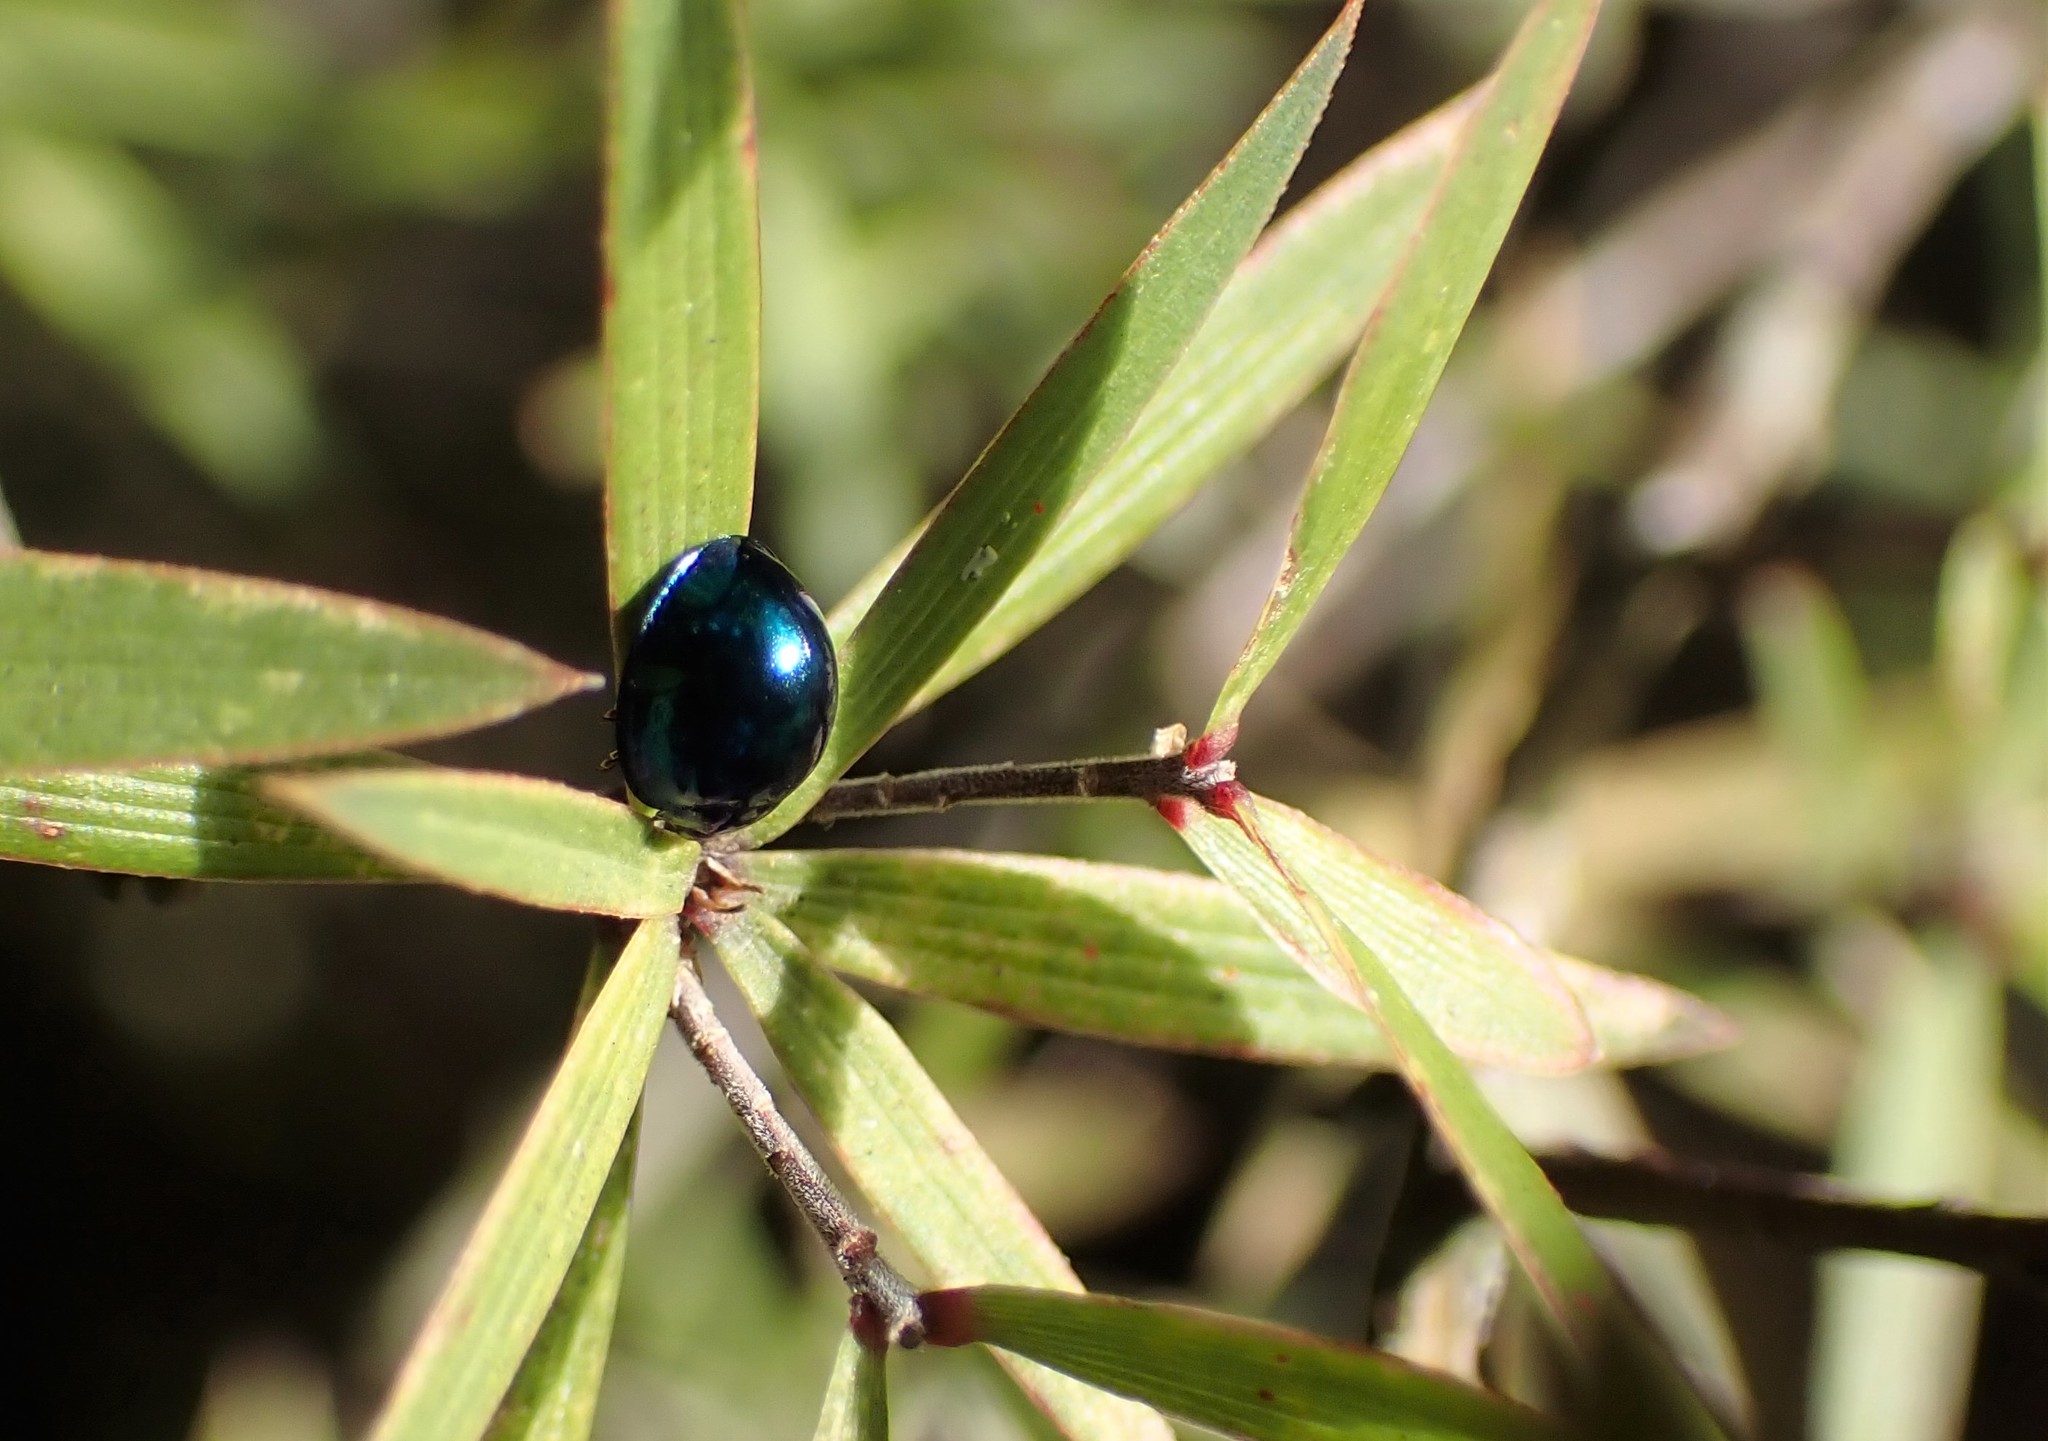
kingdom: Animalia
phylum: Arthropoda
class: Insecta
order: Coleoptera
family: Coccinellidae
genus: Halmus
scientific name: Halmus chalybeus
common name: Steel blue ladybird beetle
